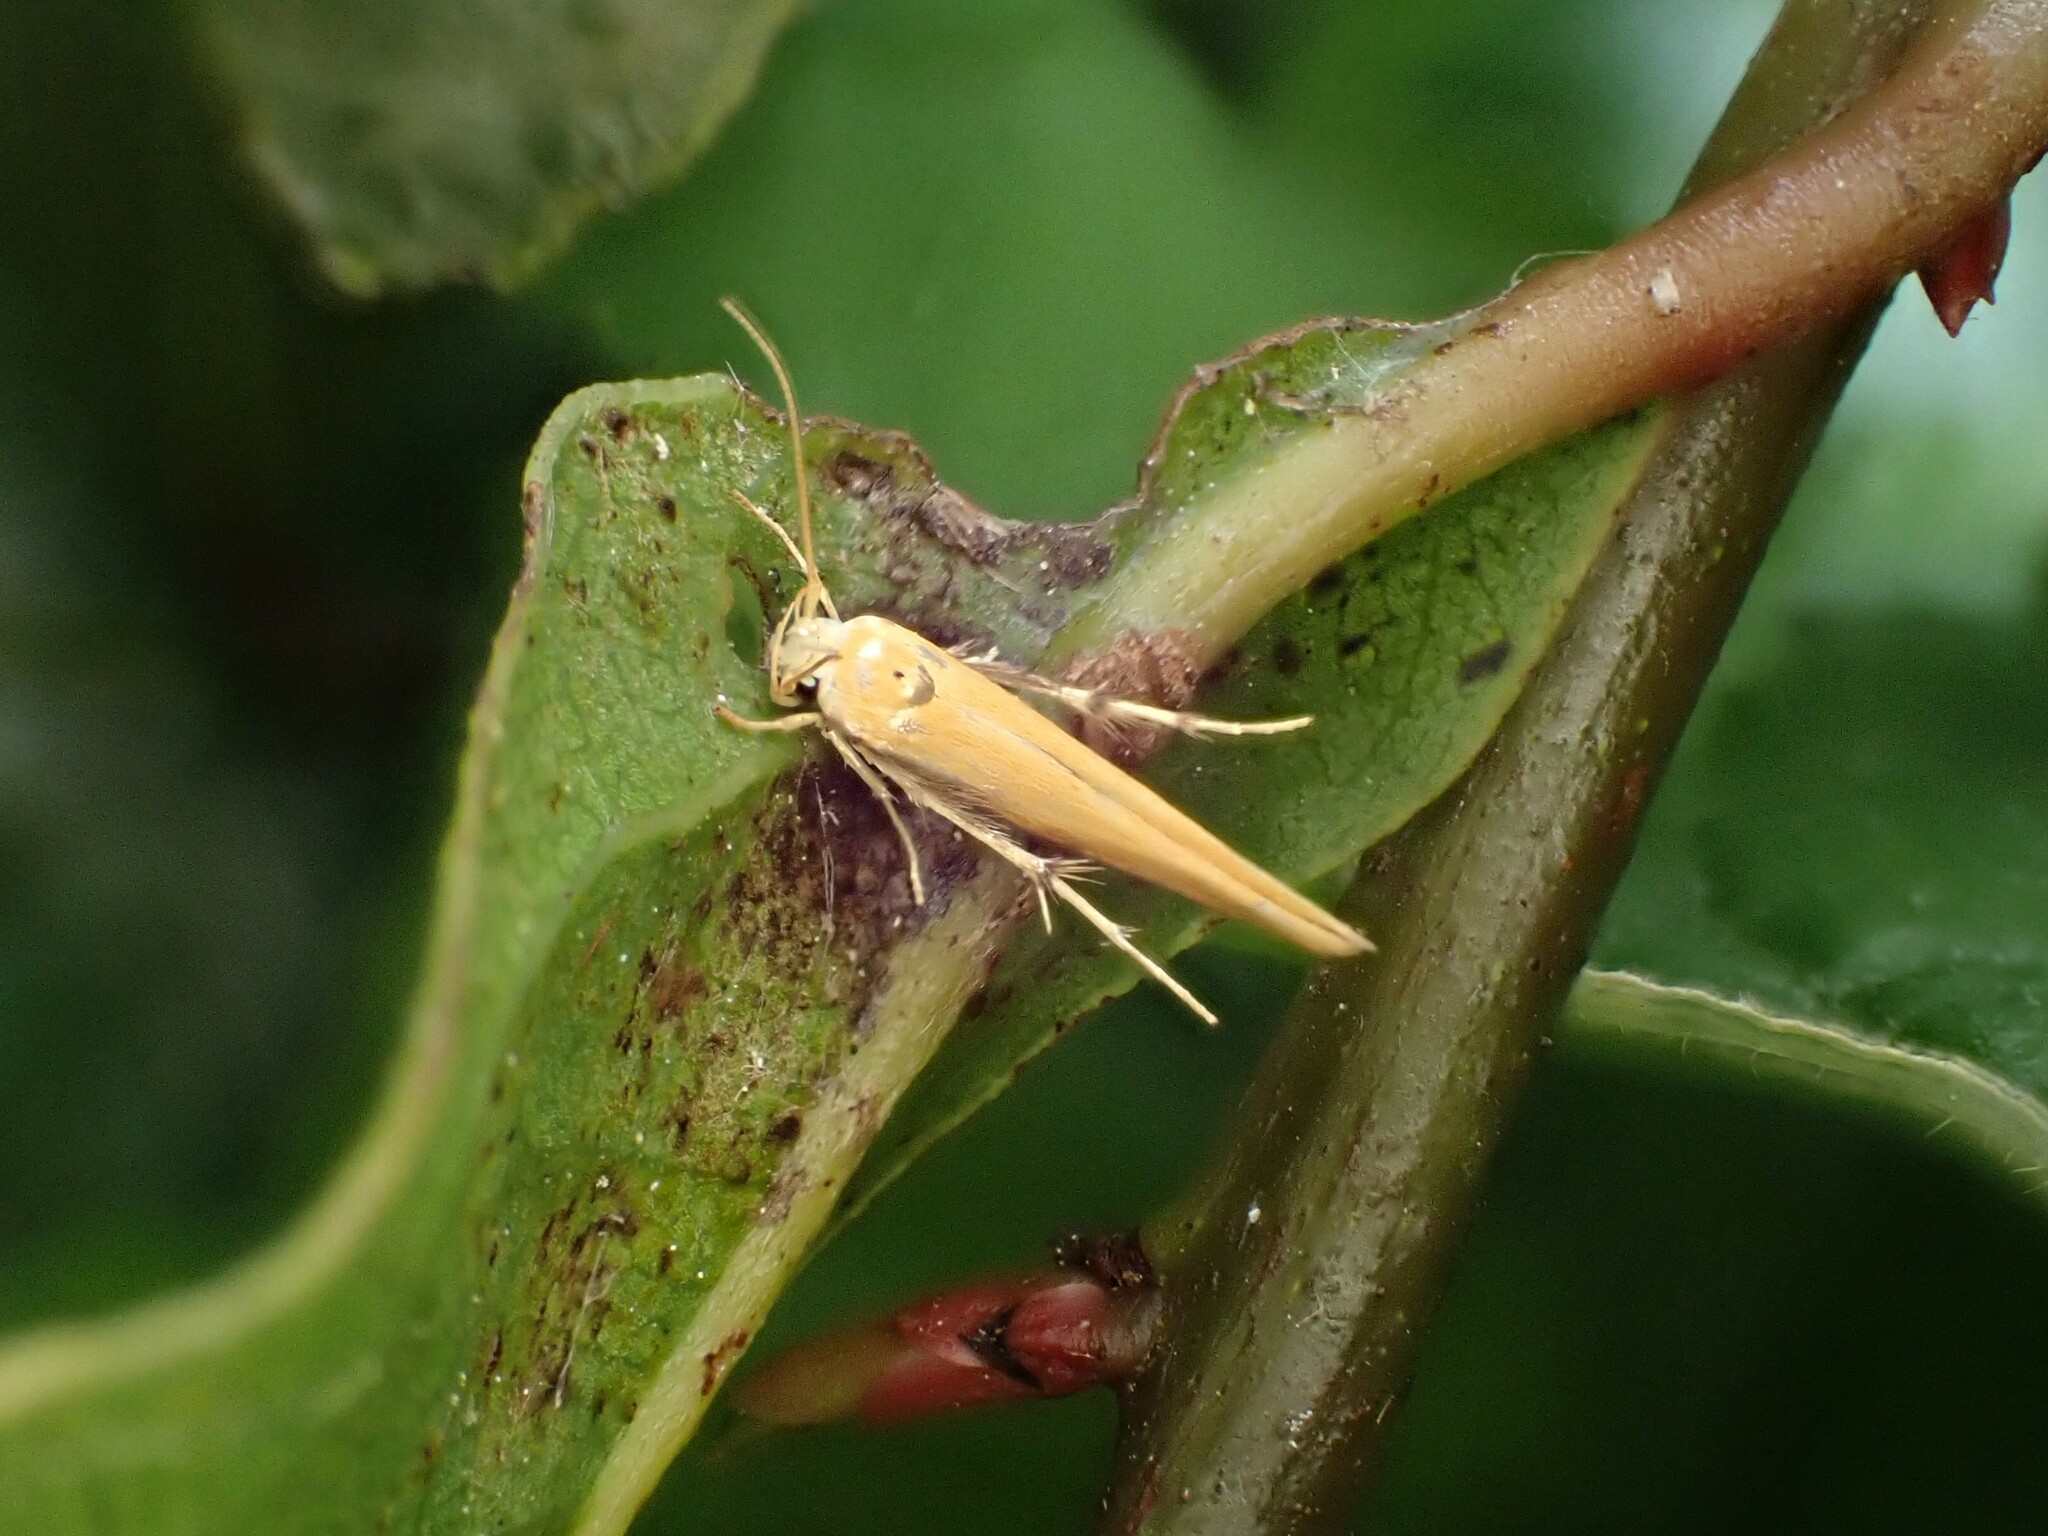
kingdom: Animalia
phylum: Arthropoda
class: Insecta
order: Lepidoptera
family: Stathmopodidae
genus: Stathmopoda
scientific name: Stathmopoda skelloni
